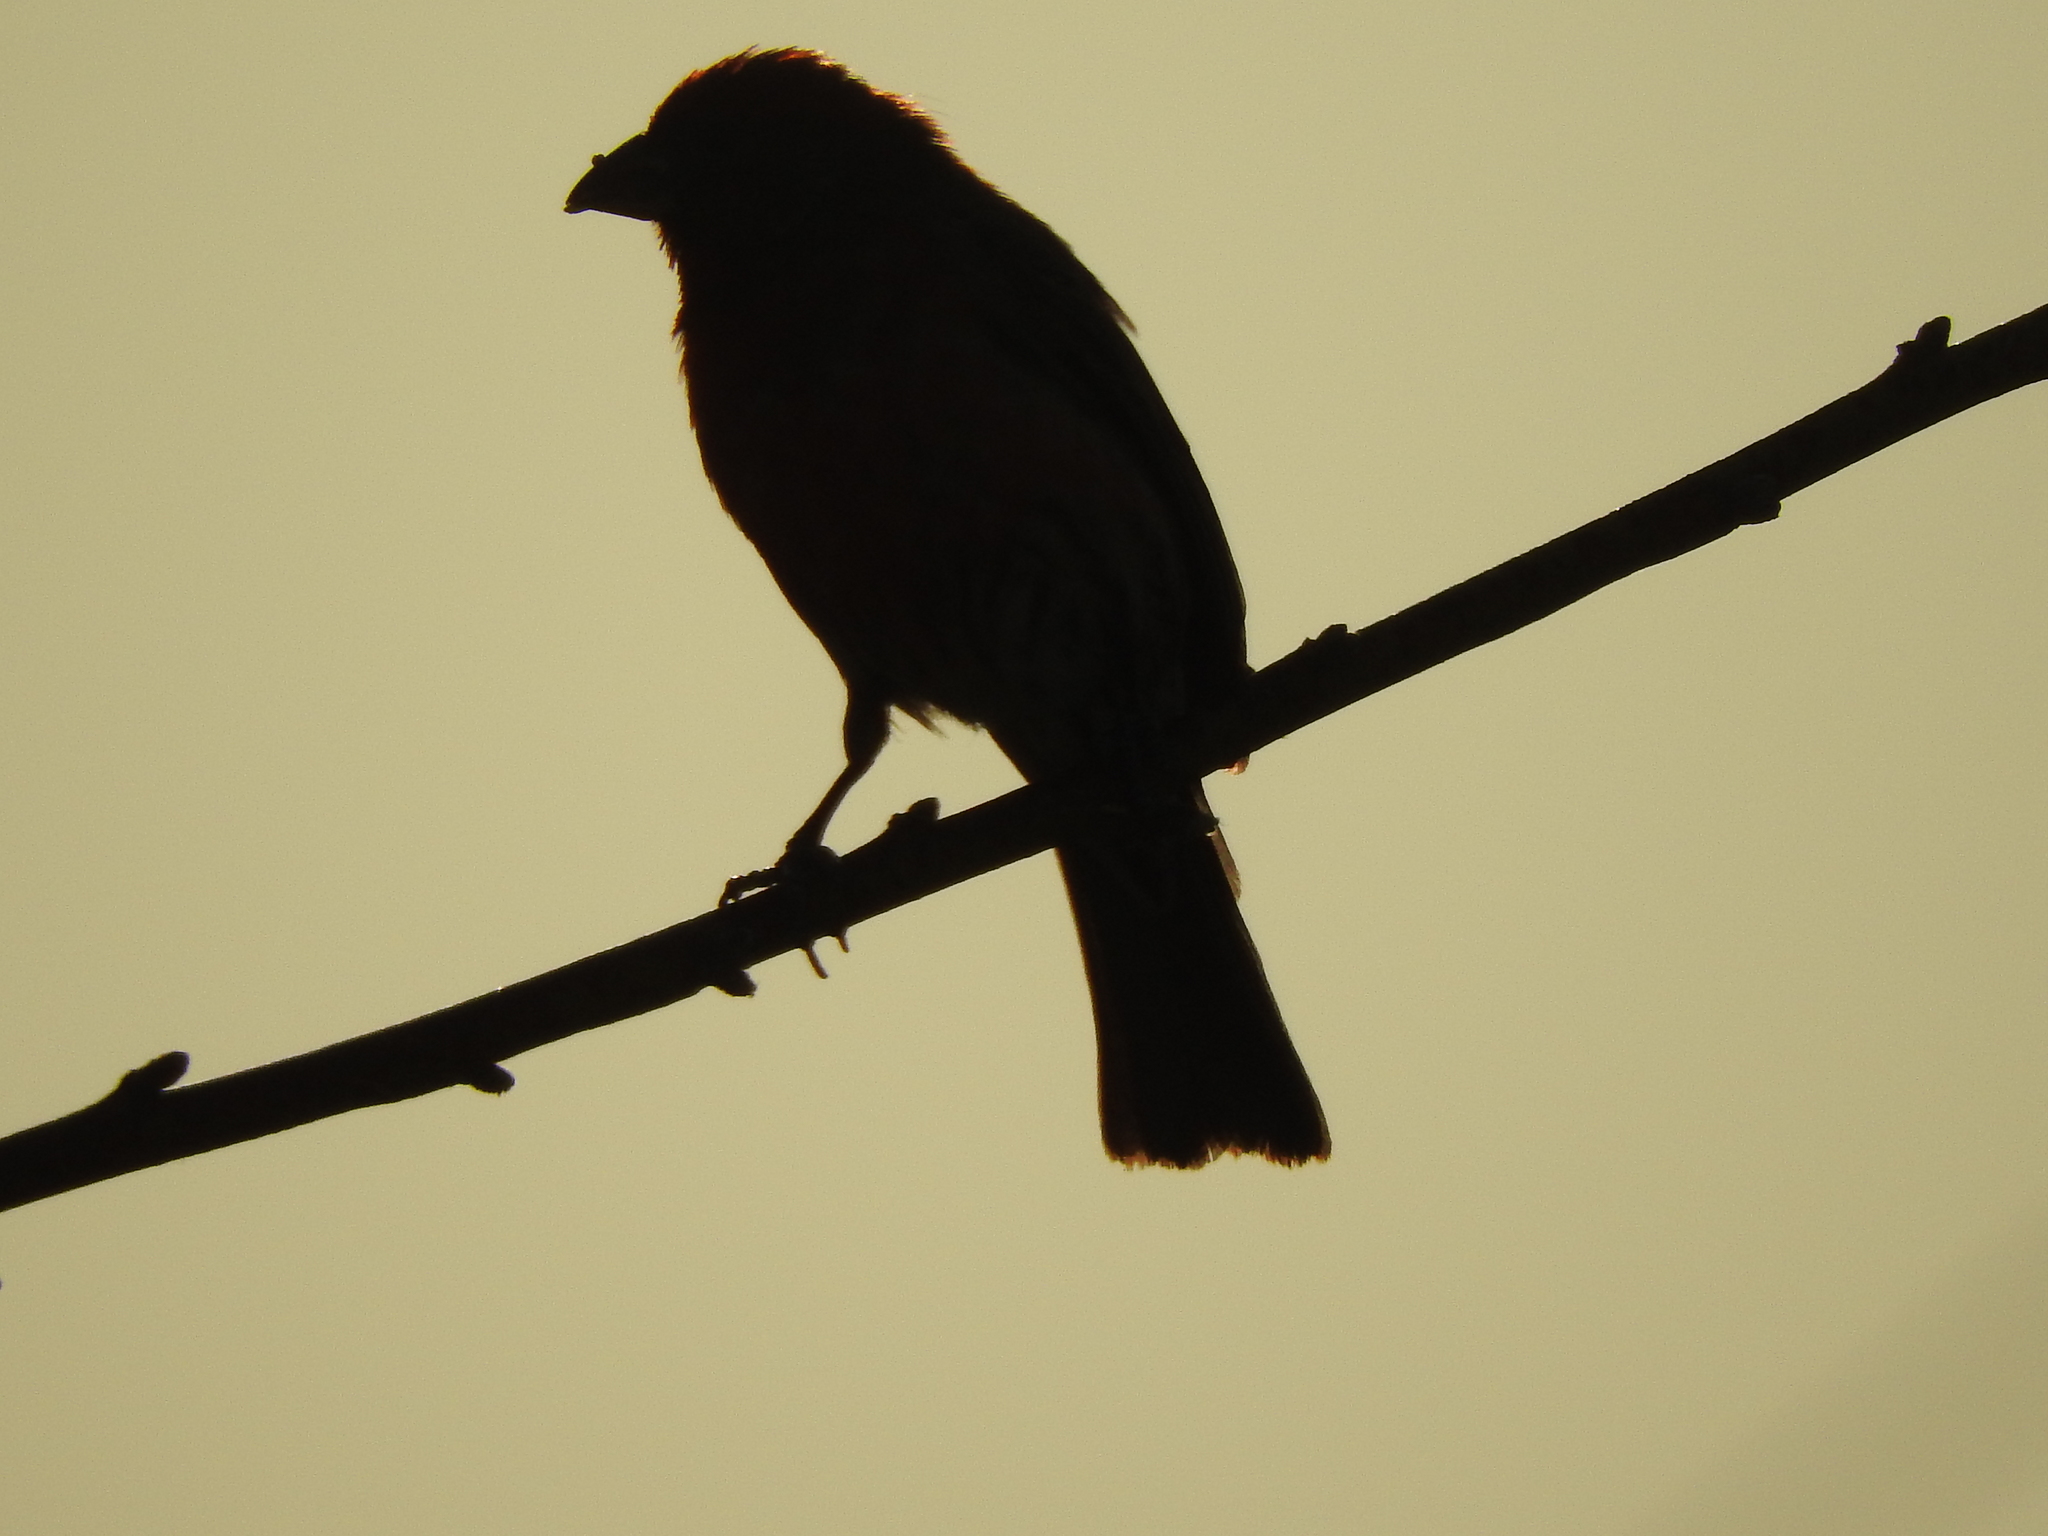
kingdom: Animalia
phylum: Chordata
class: Aves
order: Passeriformes
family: Fringillidae
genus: Haemorhous
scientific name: Haemorhous mexicanus
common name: House finch
